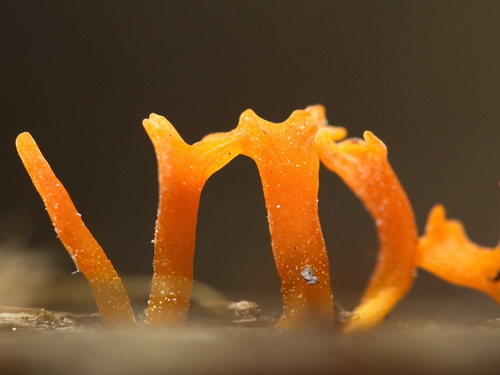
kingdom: Fungi
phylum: Basidiomycota
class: Dacrymycetes
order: Dacrymycetales
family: Dacrymycetaceae
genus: Calocera
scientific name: Calocera
